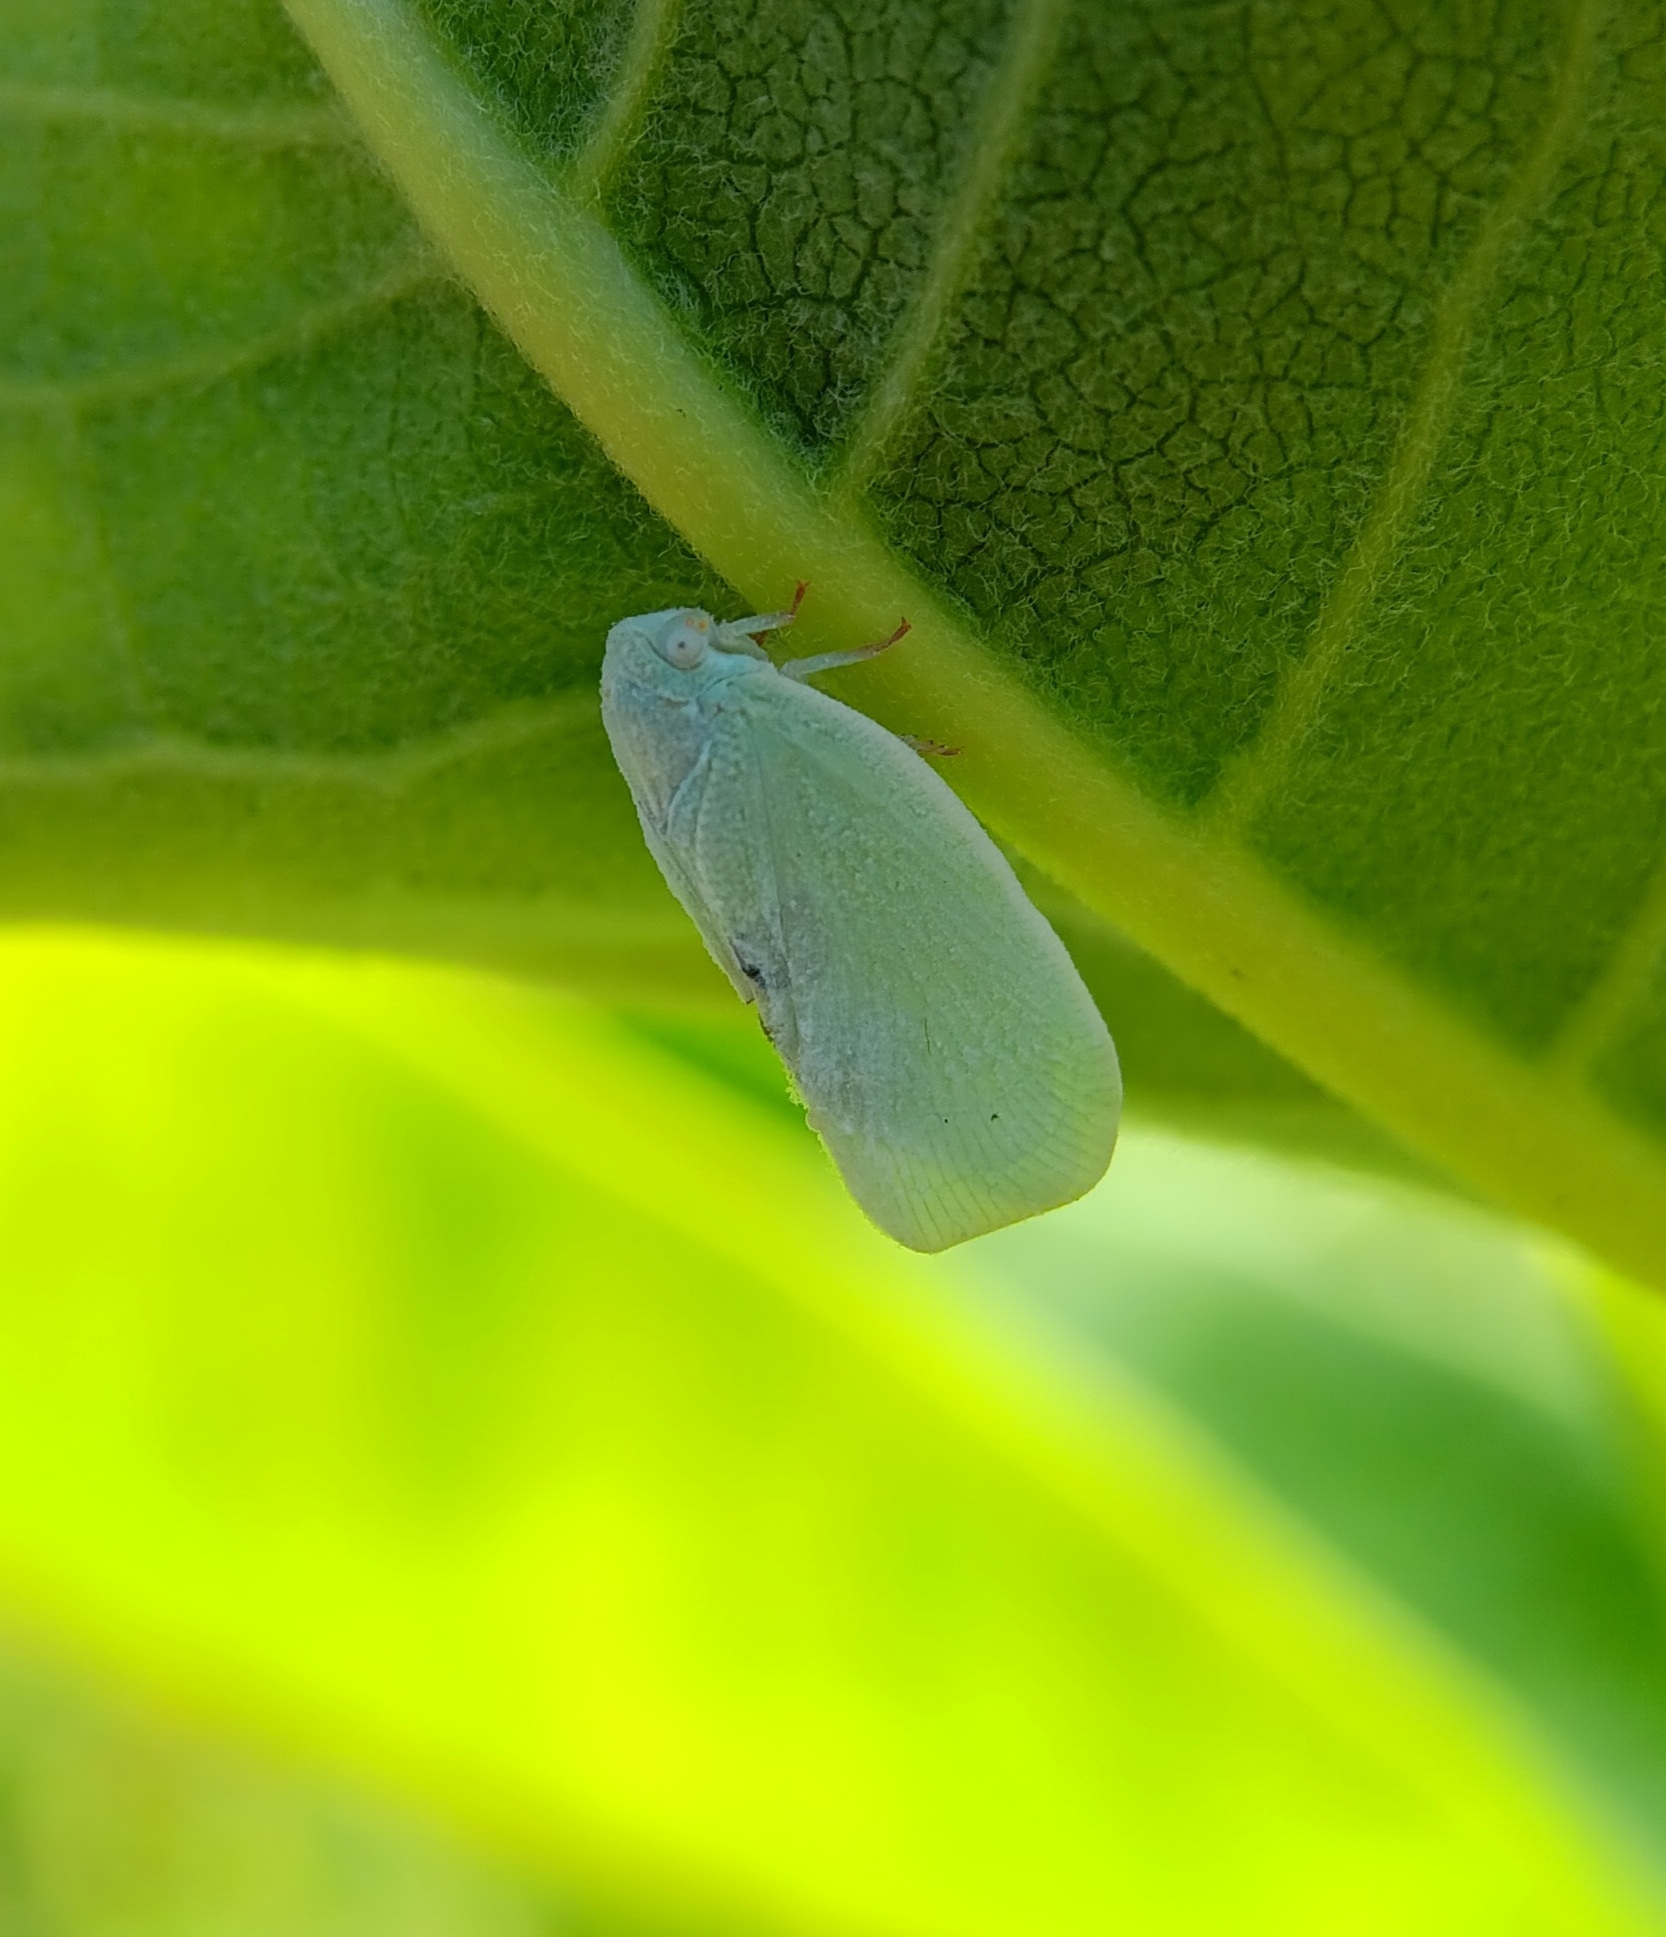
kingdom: Animalia
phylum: Arthropoda
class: Insecta
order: Hemiptera
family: Flatidae
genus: Flatormenis
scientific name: Flatormenis proxima
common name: Northern flatid planthopper
